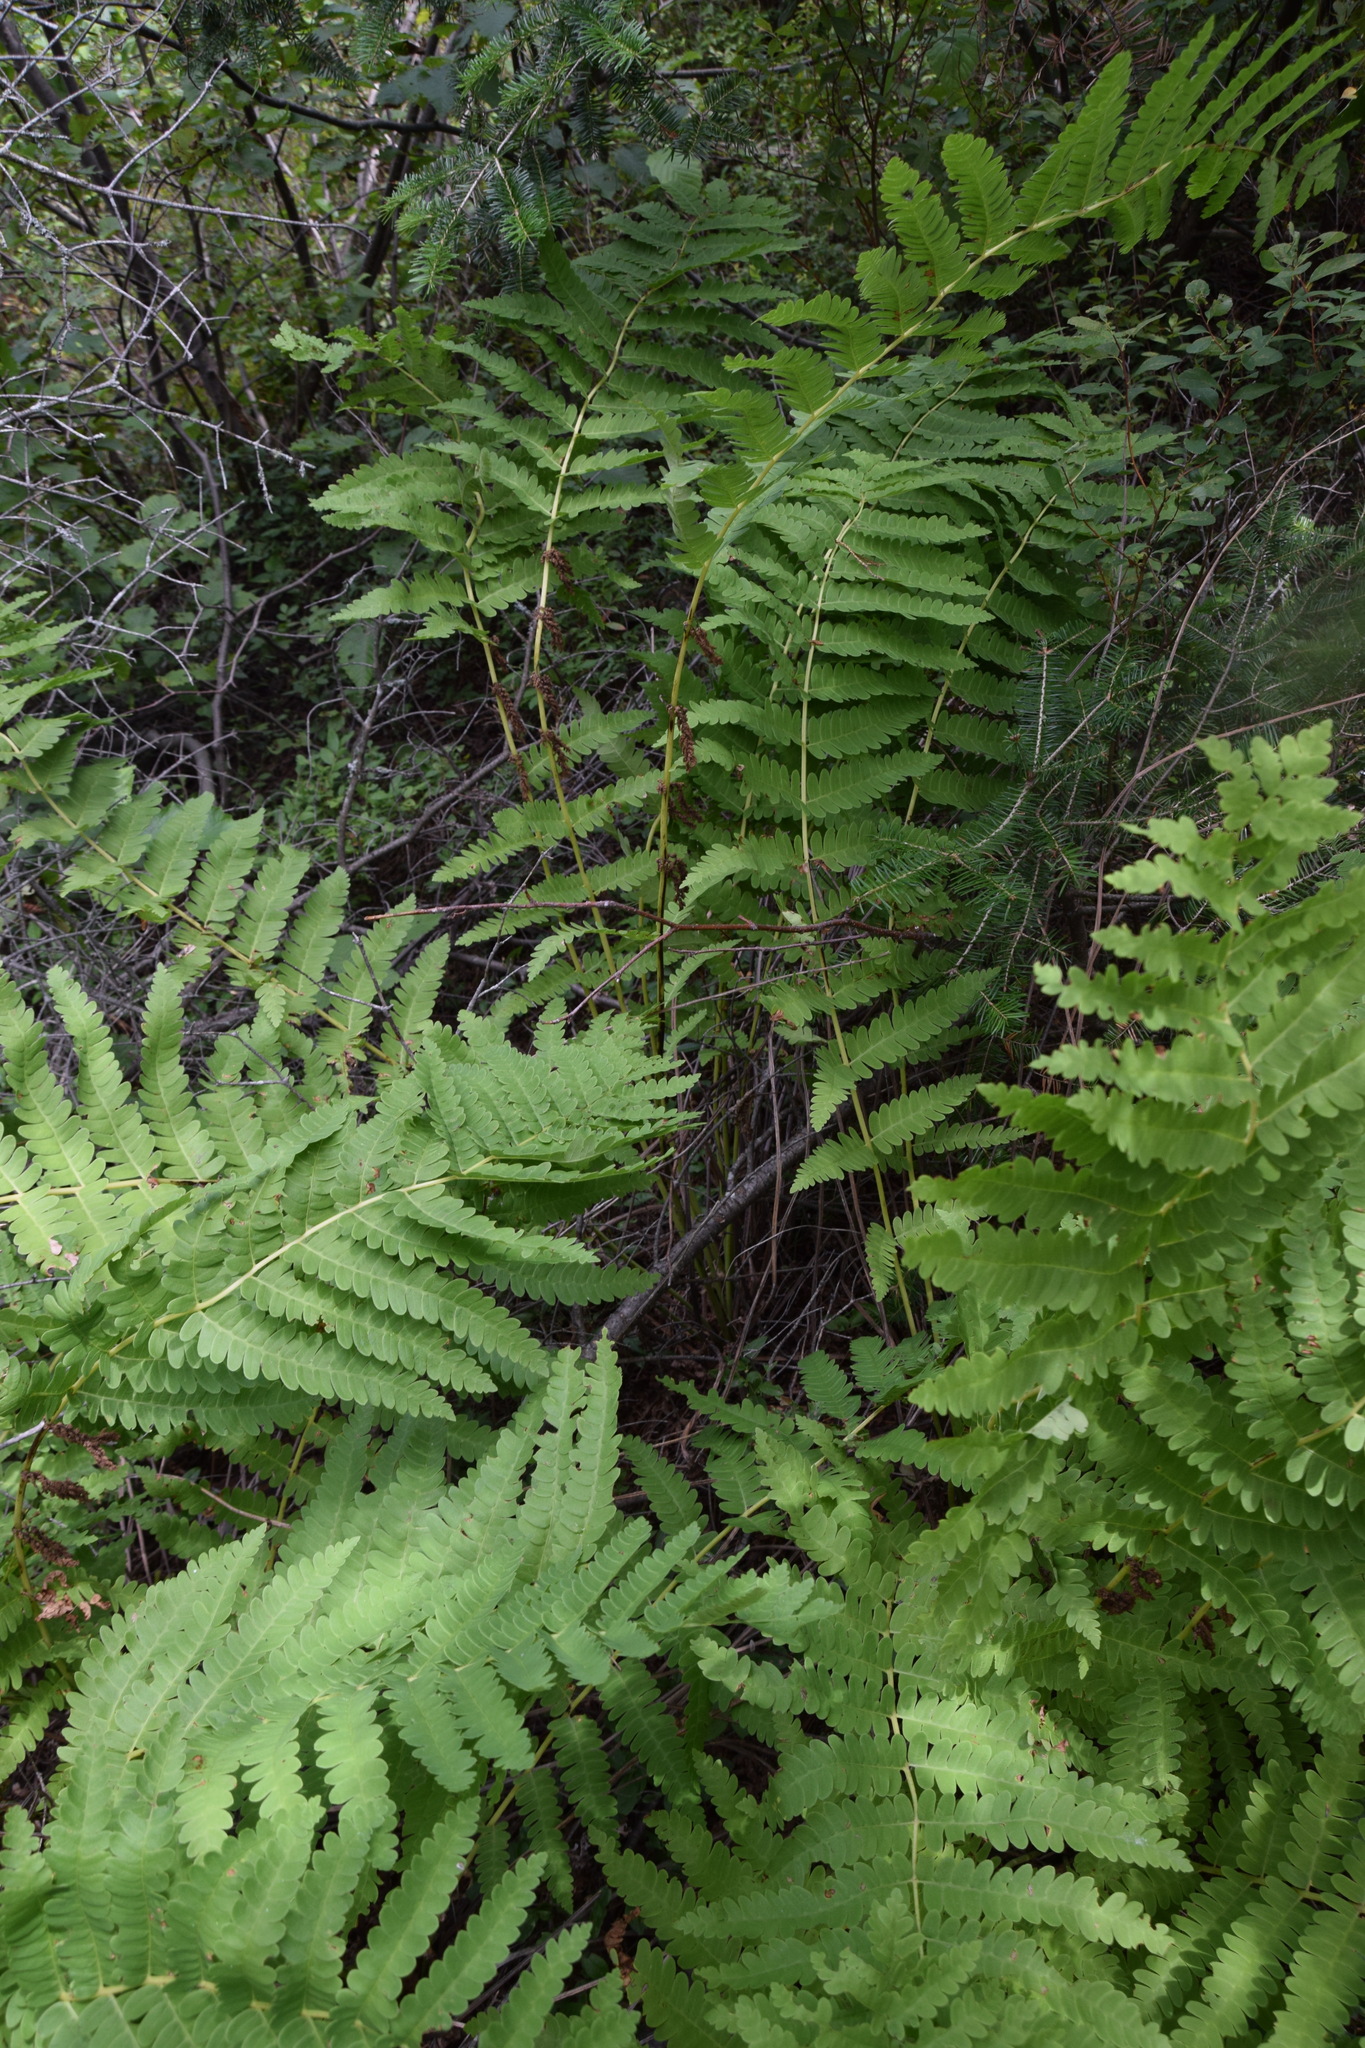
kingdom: Plantae
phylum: Tracheophyta
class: Polypodiopsida
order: Osmundales
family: Osmundaceae
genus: Claytosmunda
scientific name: Claytosmunda claytoniana
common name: Clayton's fern
